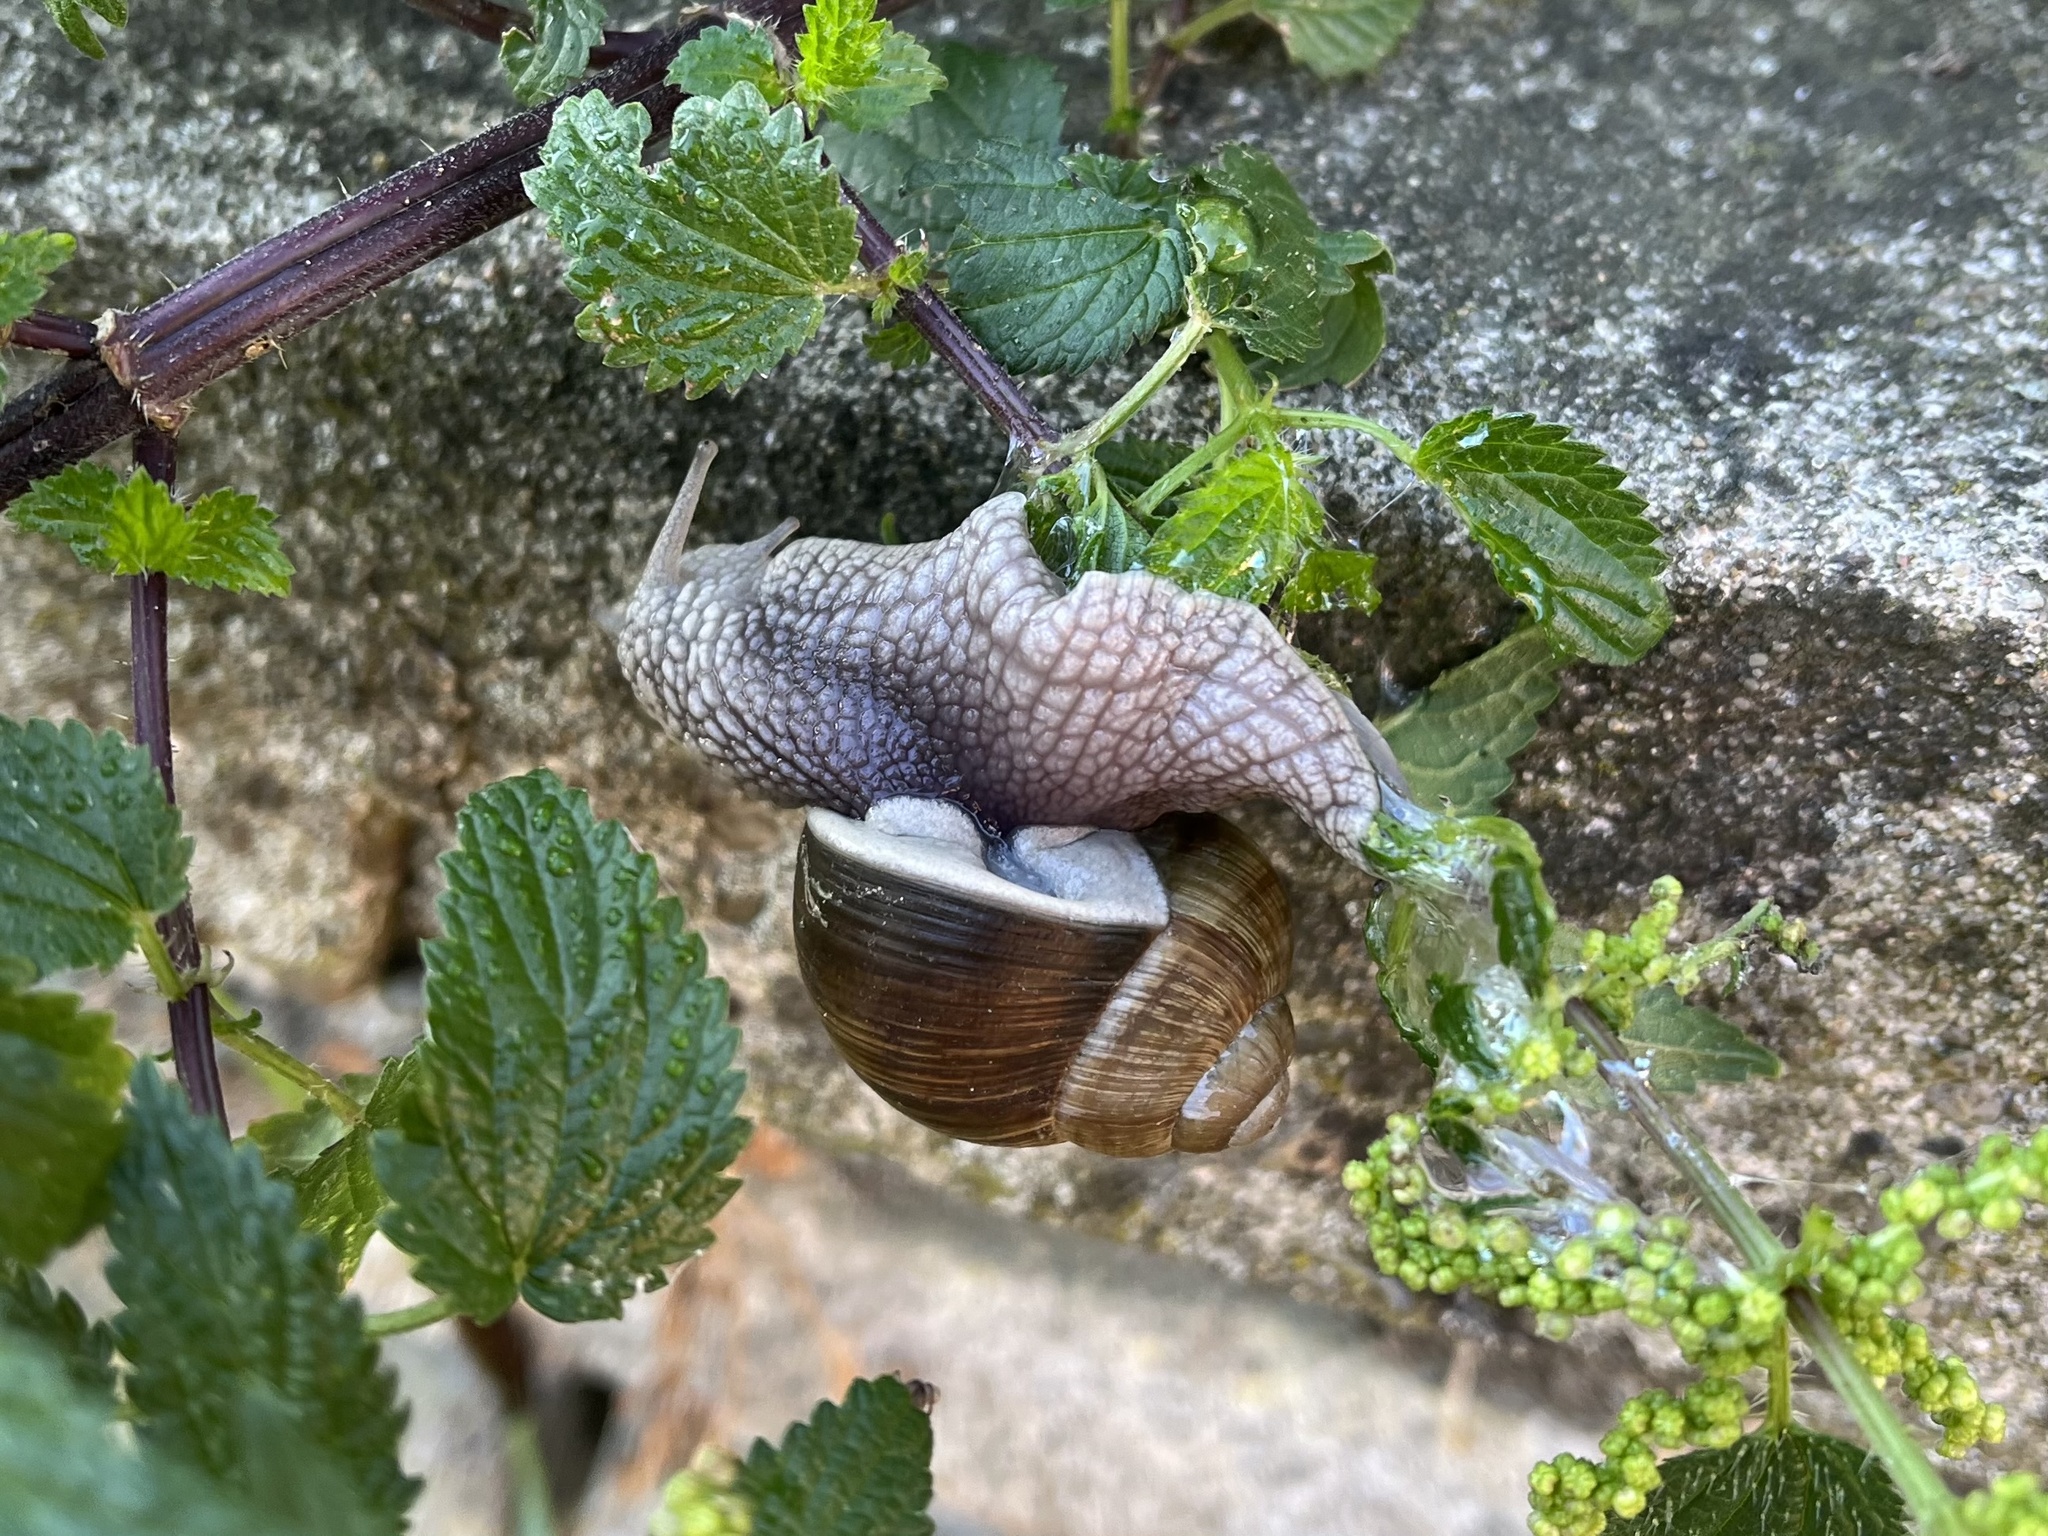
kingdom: Animalia
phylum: Mollusca
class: Gastropoda
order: Stylommatophora
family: Helicidae
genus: Helix
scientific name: Helix pomatia
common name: Roman snail
